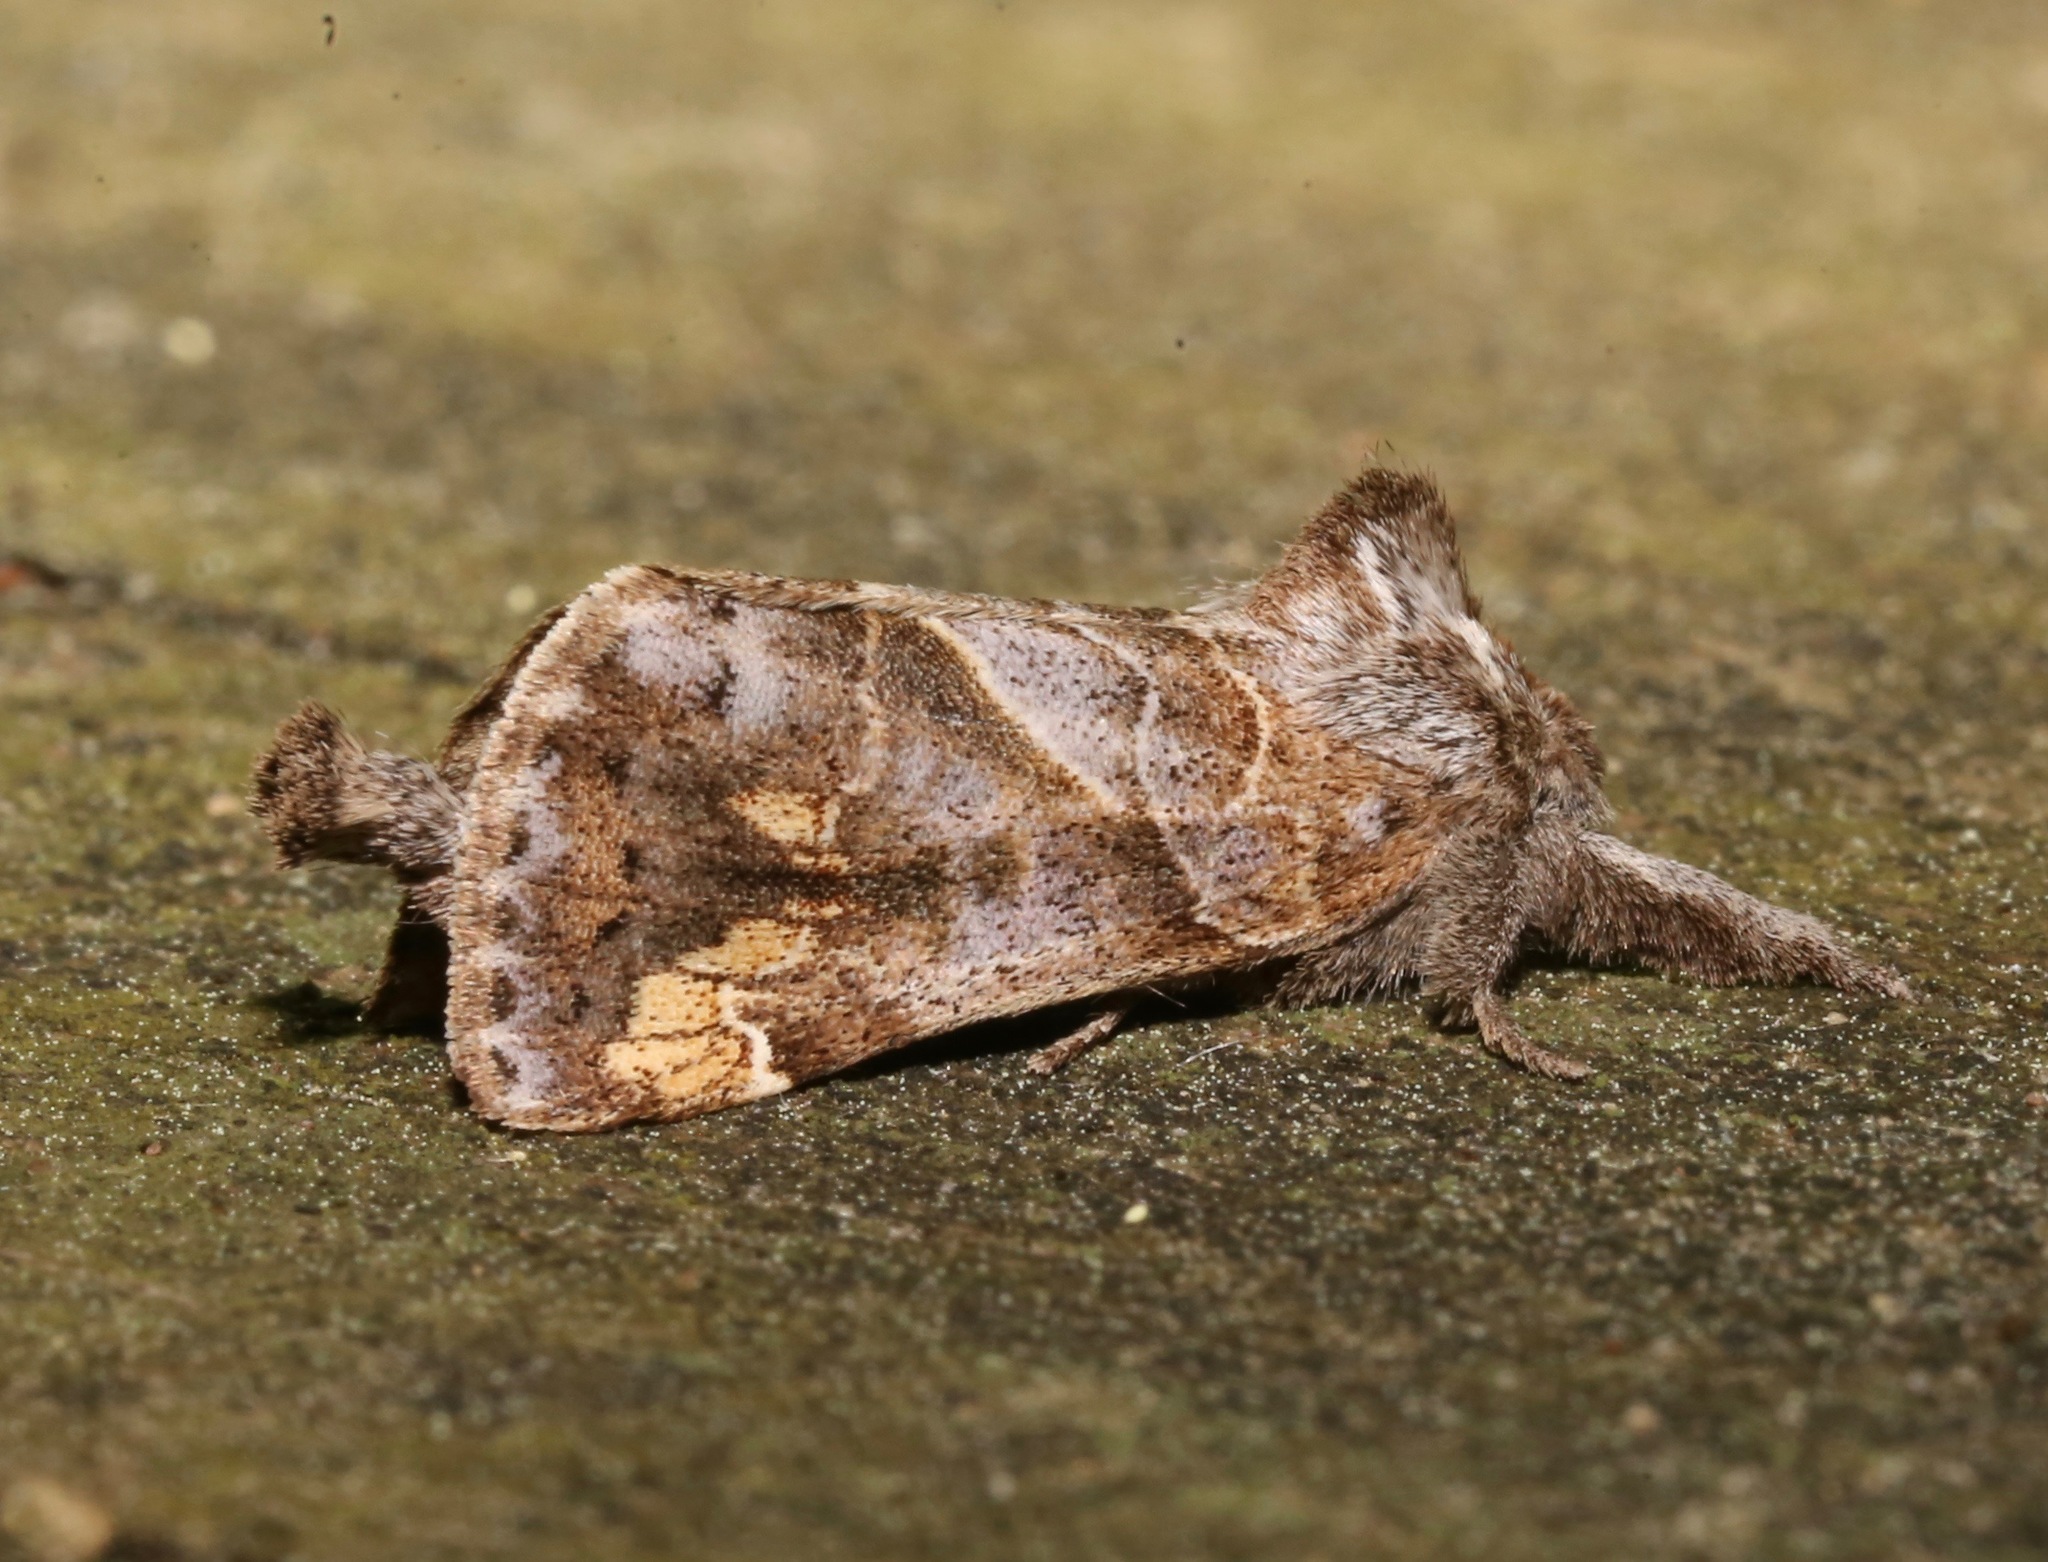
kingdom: Animalia
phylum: Arthropoda
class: Insecta
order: Lepidoptera
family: Notodontidae
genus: Clostera
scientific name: Clostera strigosa
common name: Striped chocolate-tip moth
